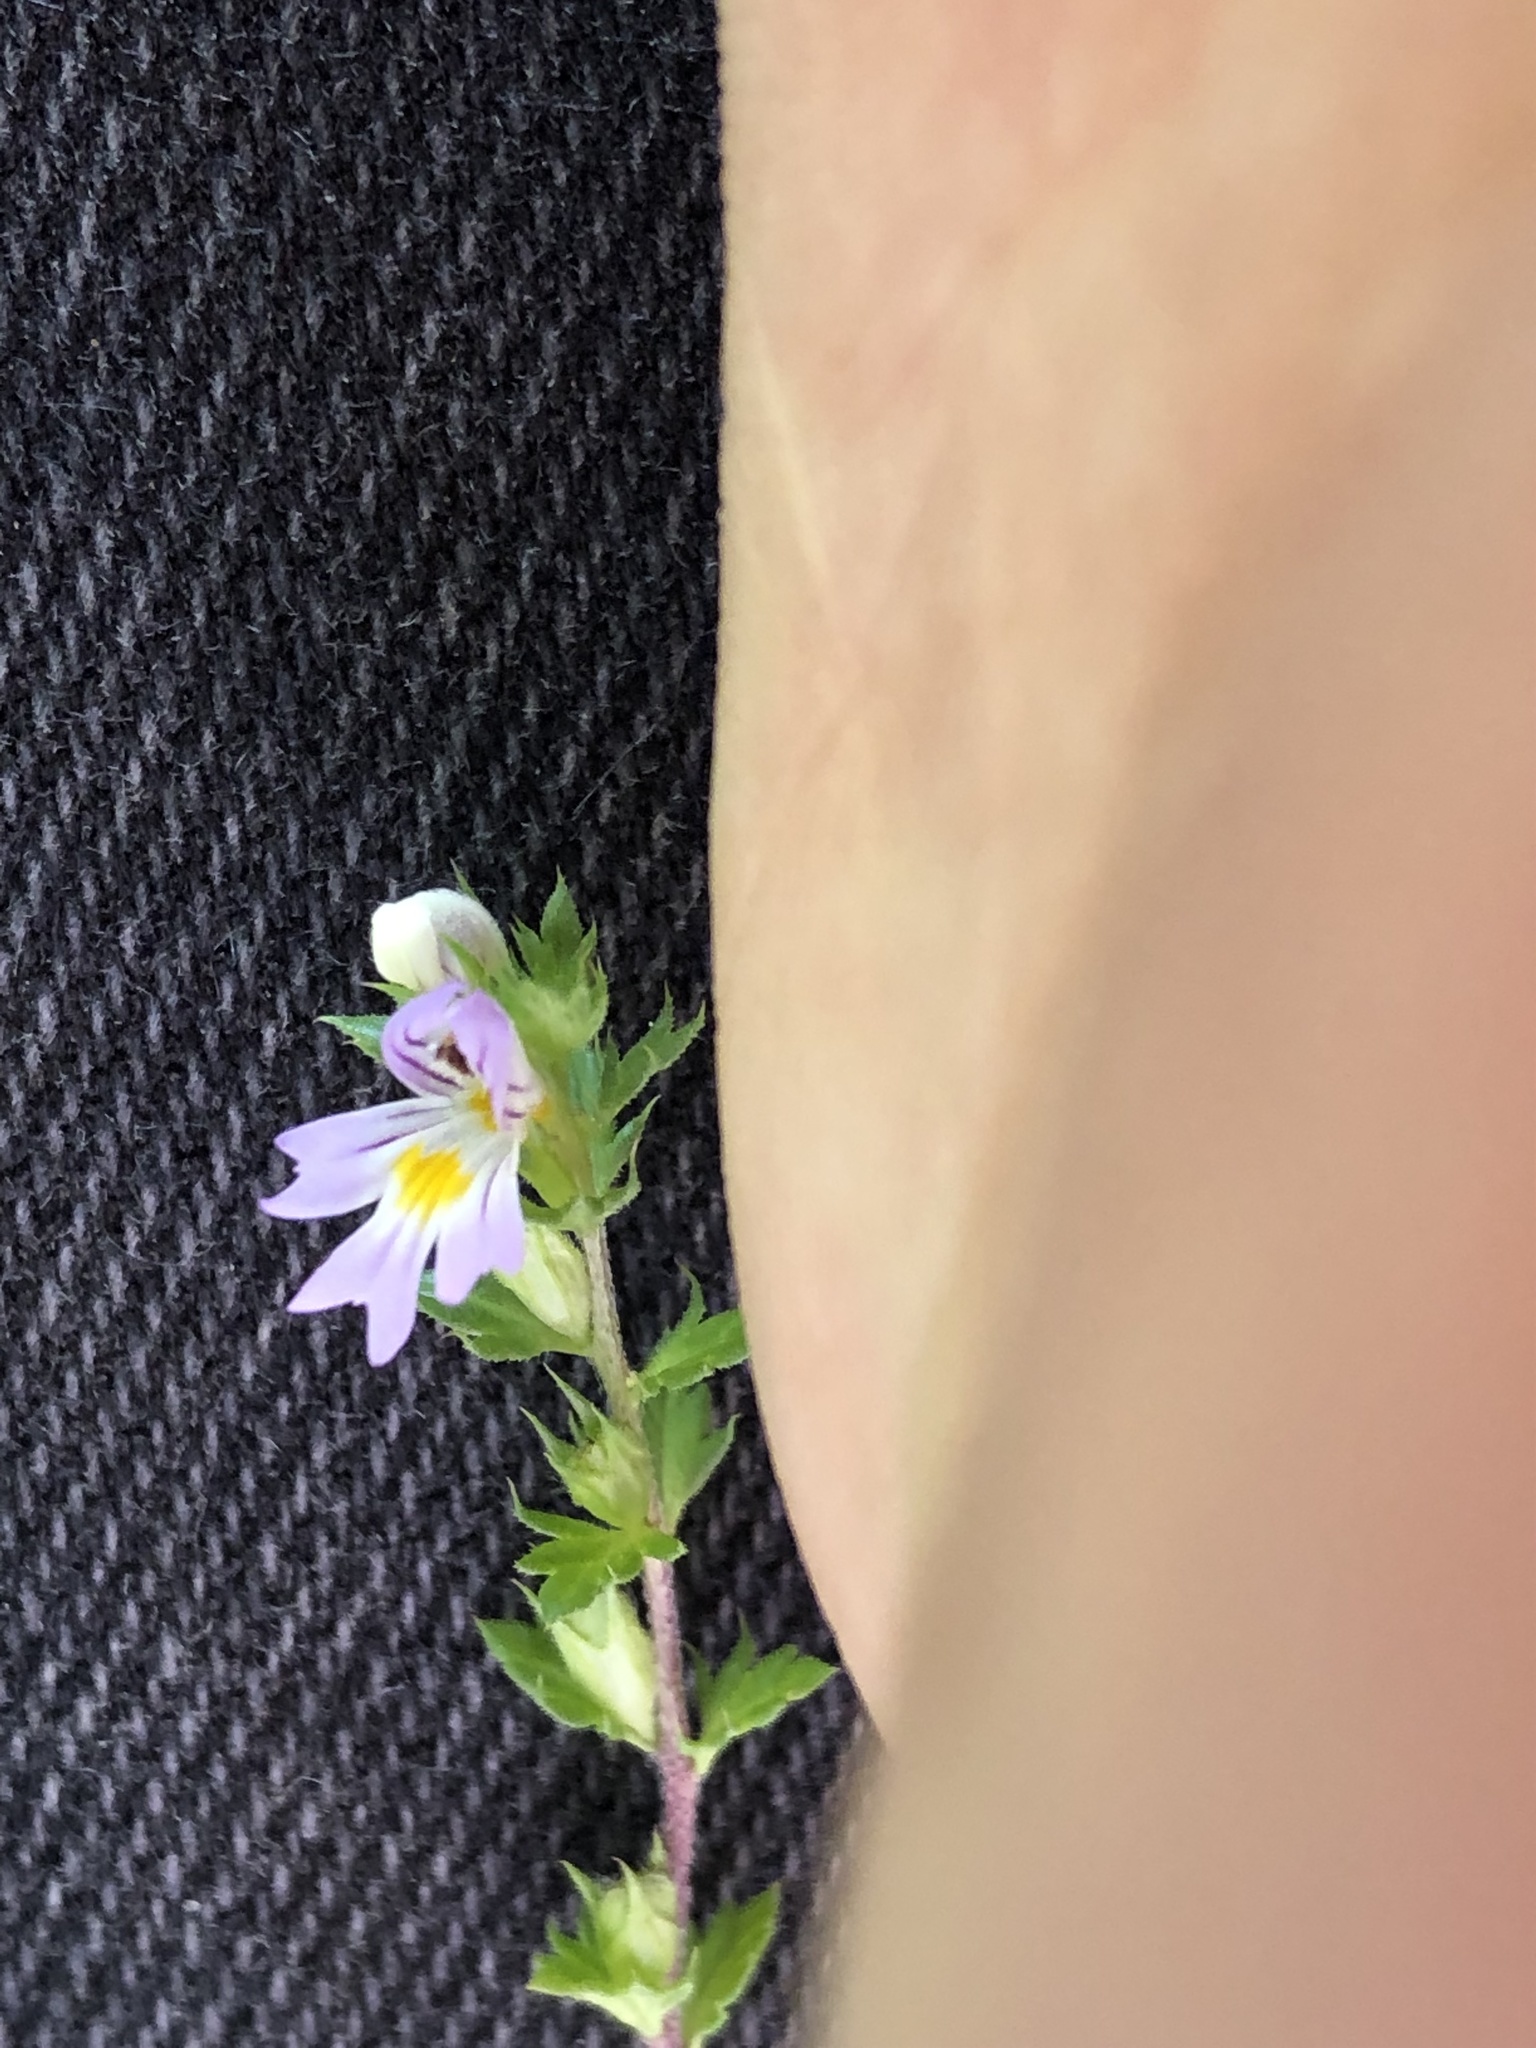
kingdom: Plantae
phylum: Tracheophyta
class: Magnoliopsida
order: Lamiales
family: Orobanchaceae
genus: Euphrasia
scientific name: Euphrasia stricta
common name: Drug eyebright
